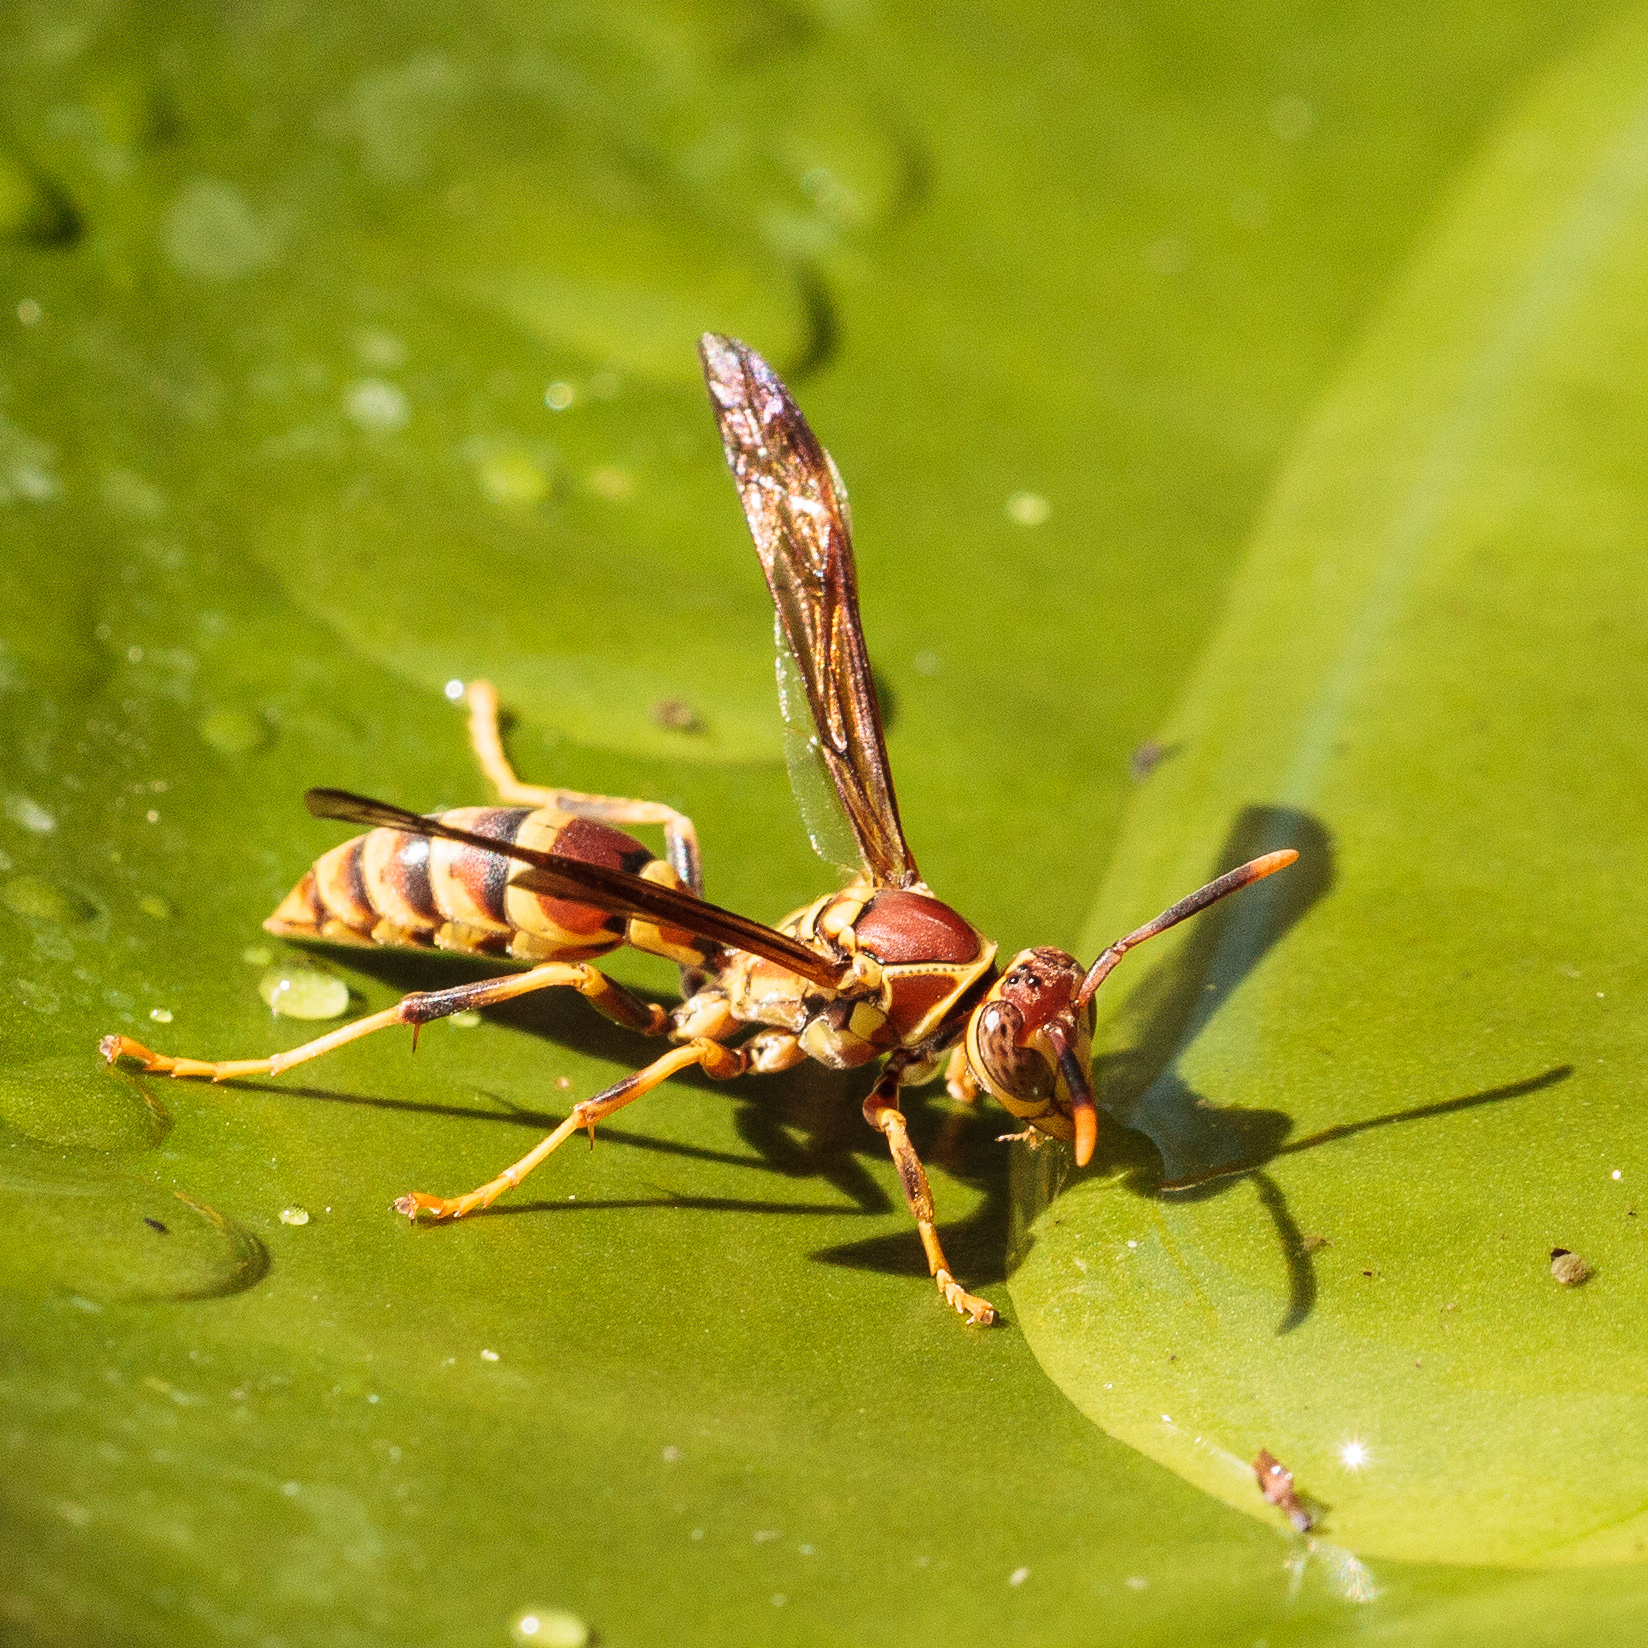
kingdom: Animalia
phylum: Arthropoda
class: Insecta
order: Hymenoptera
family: Eumenidae
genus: Polistes
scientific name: Polistes exclamans
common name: Paper wasp
